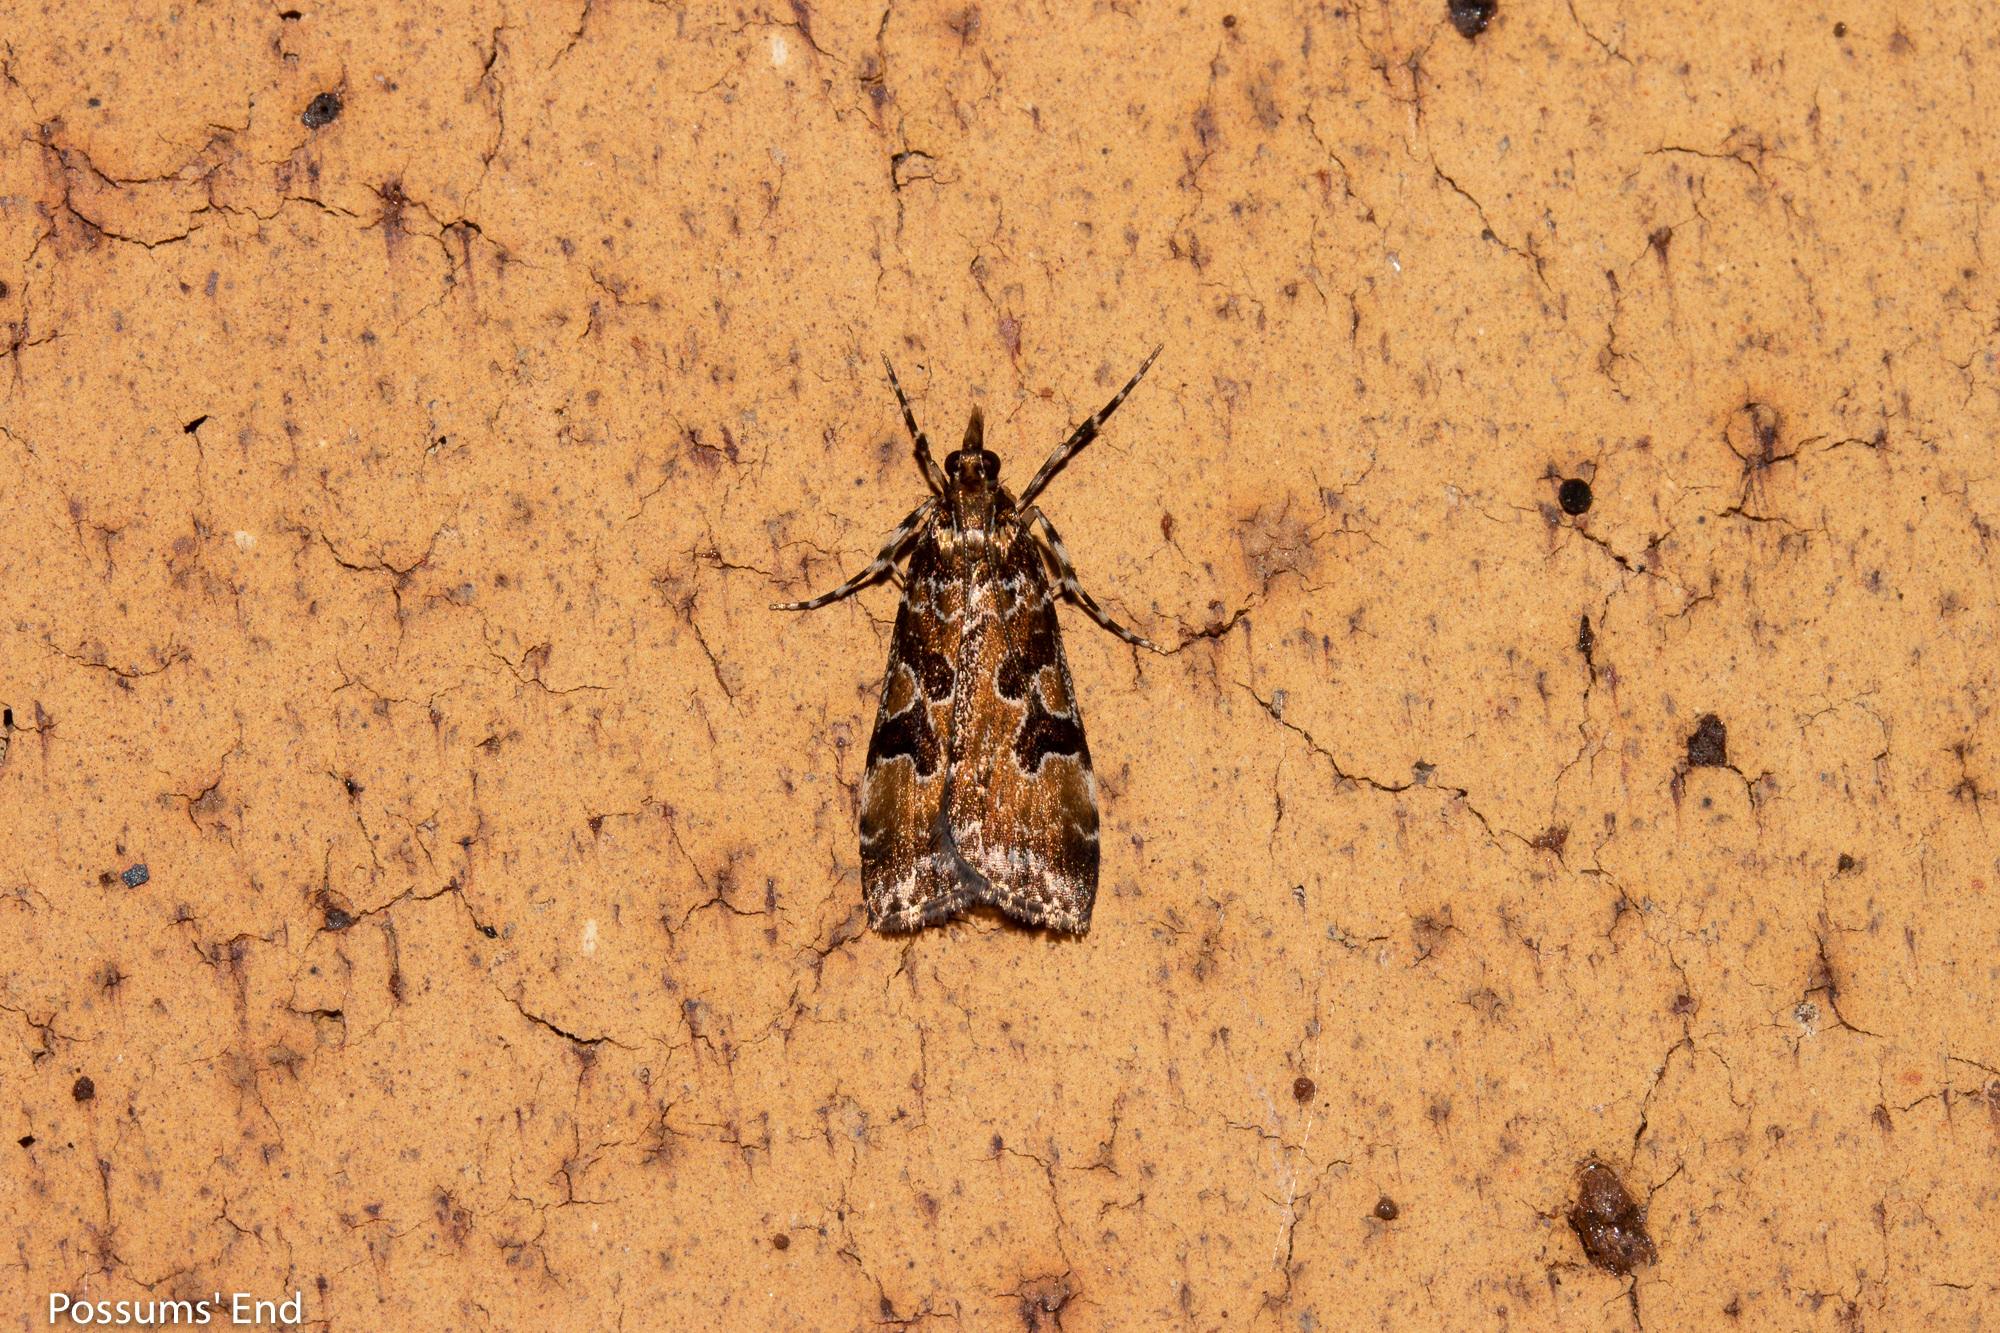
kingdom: Animalia
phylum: Arthropoda
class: Insecta
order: Lepidoptera
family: Crambidae
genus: Scoparia
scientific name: Scoparia ustimacula
